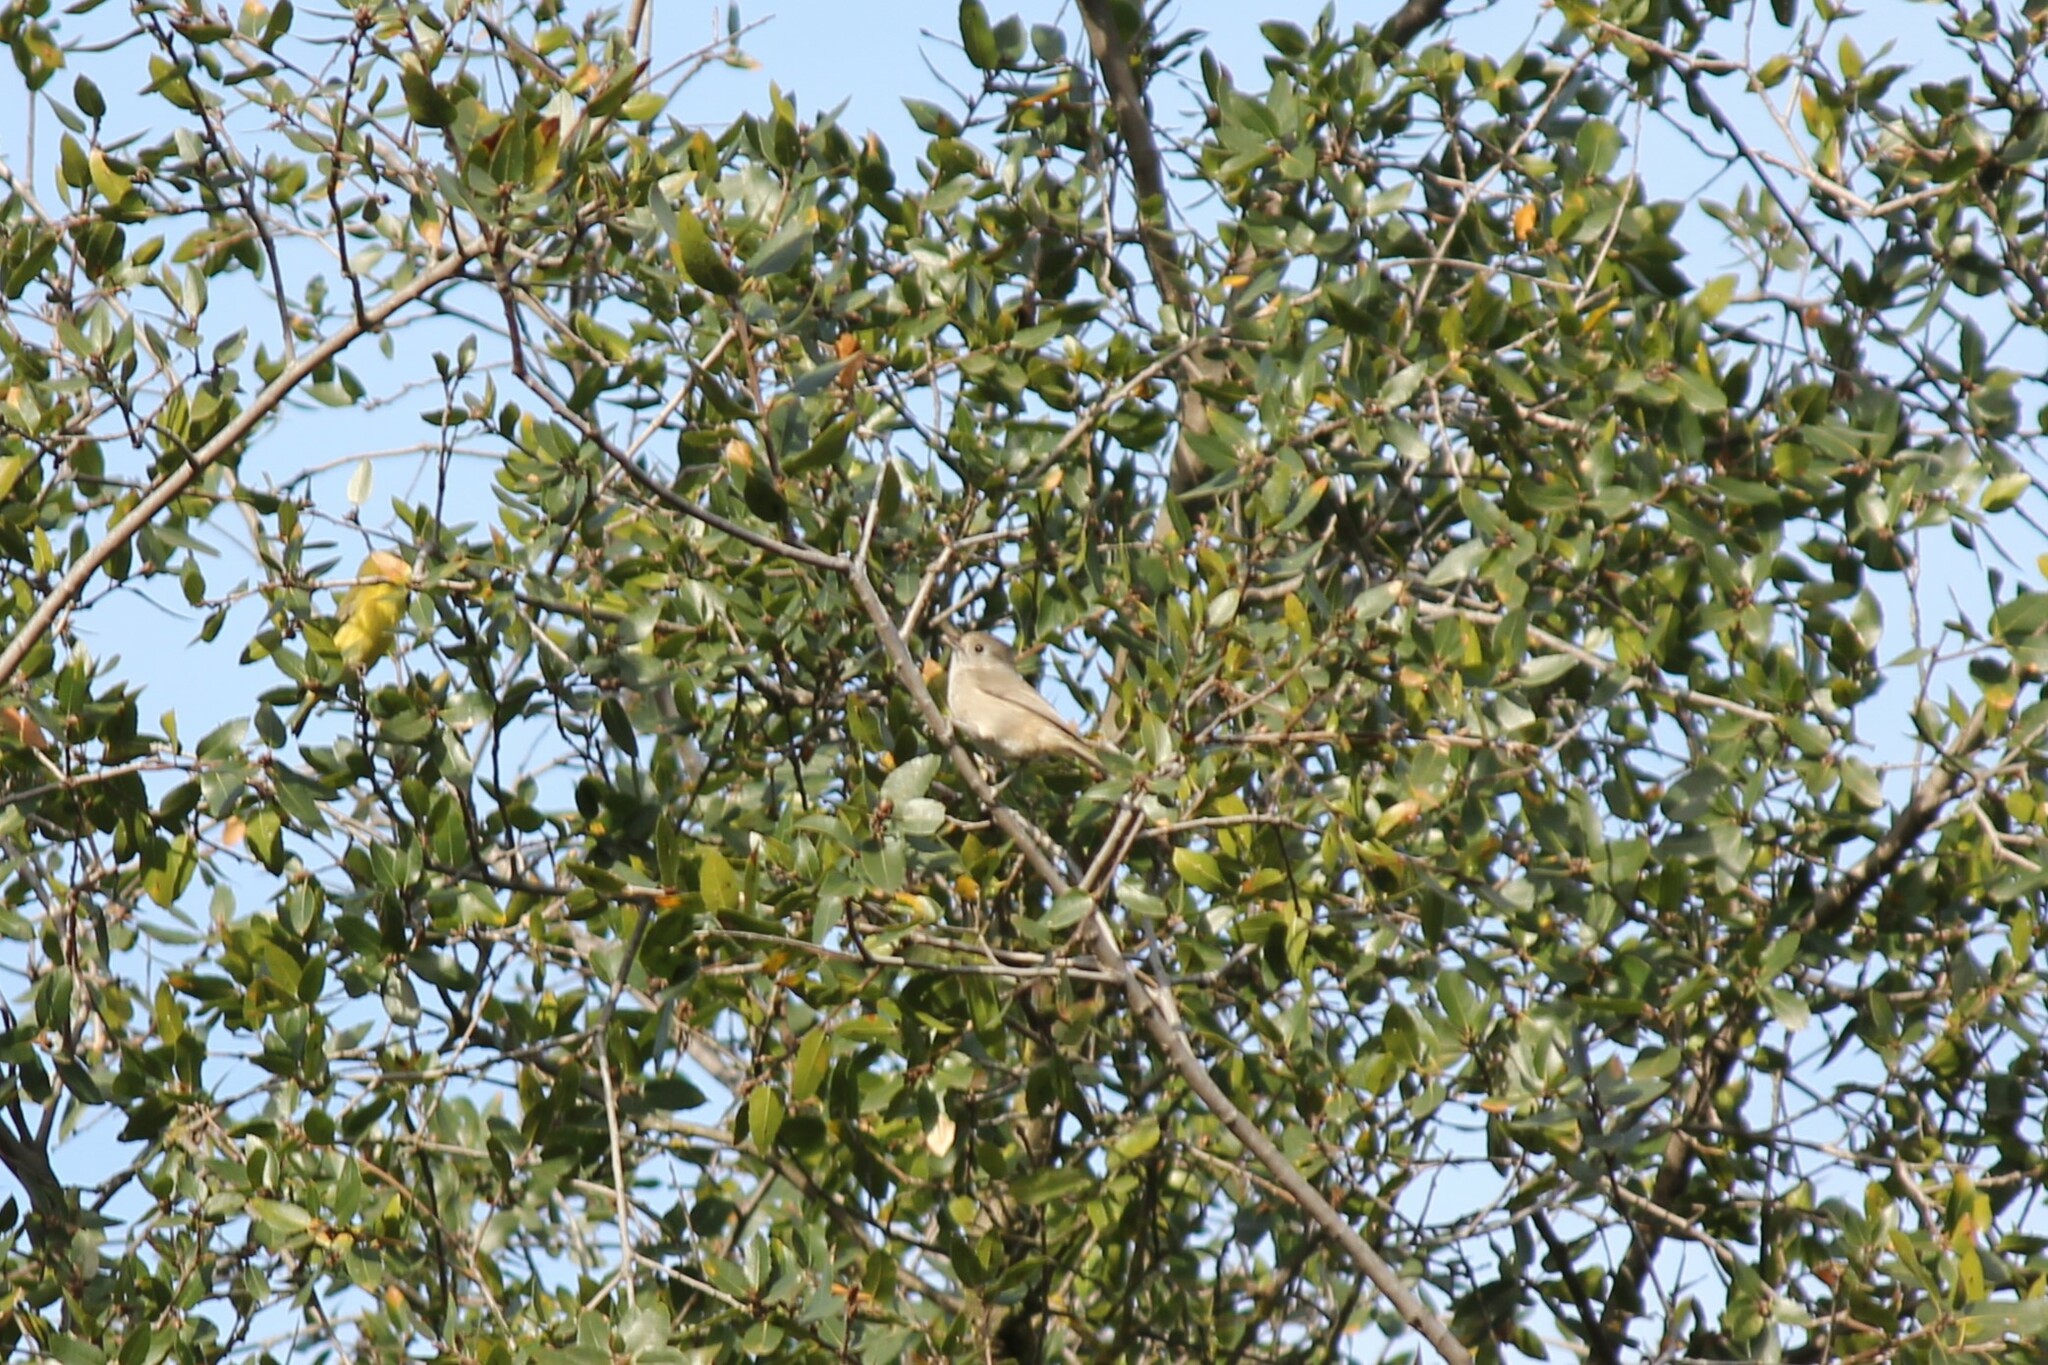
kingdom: Animalia
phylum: Chordata
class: Aves
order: Passeriformes
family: Aegithalidae
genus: Psaltriparus
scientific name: Psaltriparus minimus
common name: American bushtit
